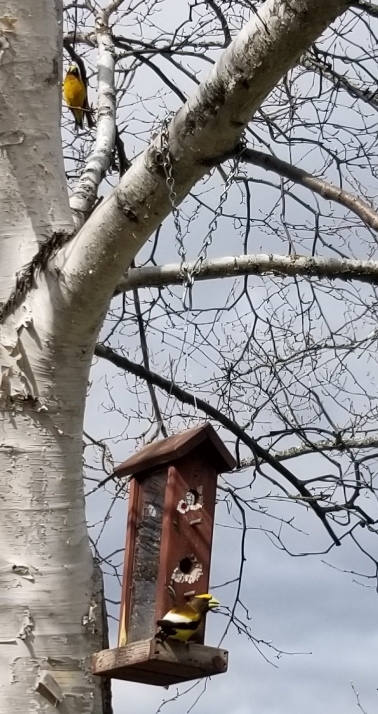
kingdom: Animalia
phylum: Chordata
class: Aves
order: Passeriformes
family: Fringillidae
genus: Hesperiphona
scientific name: Hesperiphona vespertina
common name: Evening grosbeak
